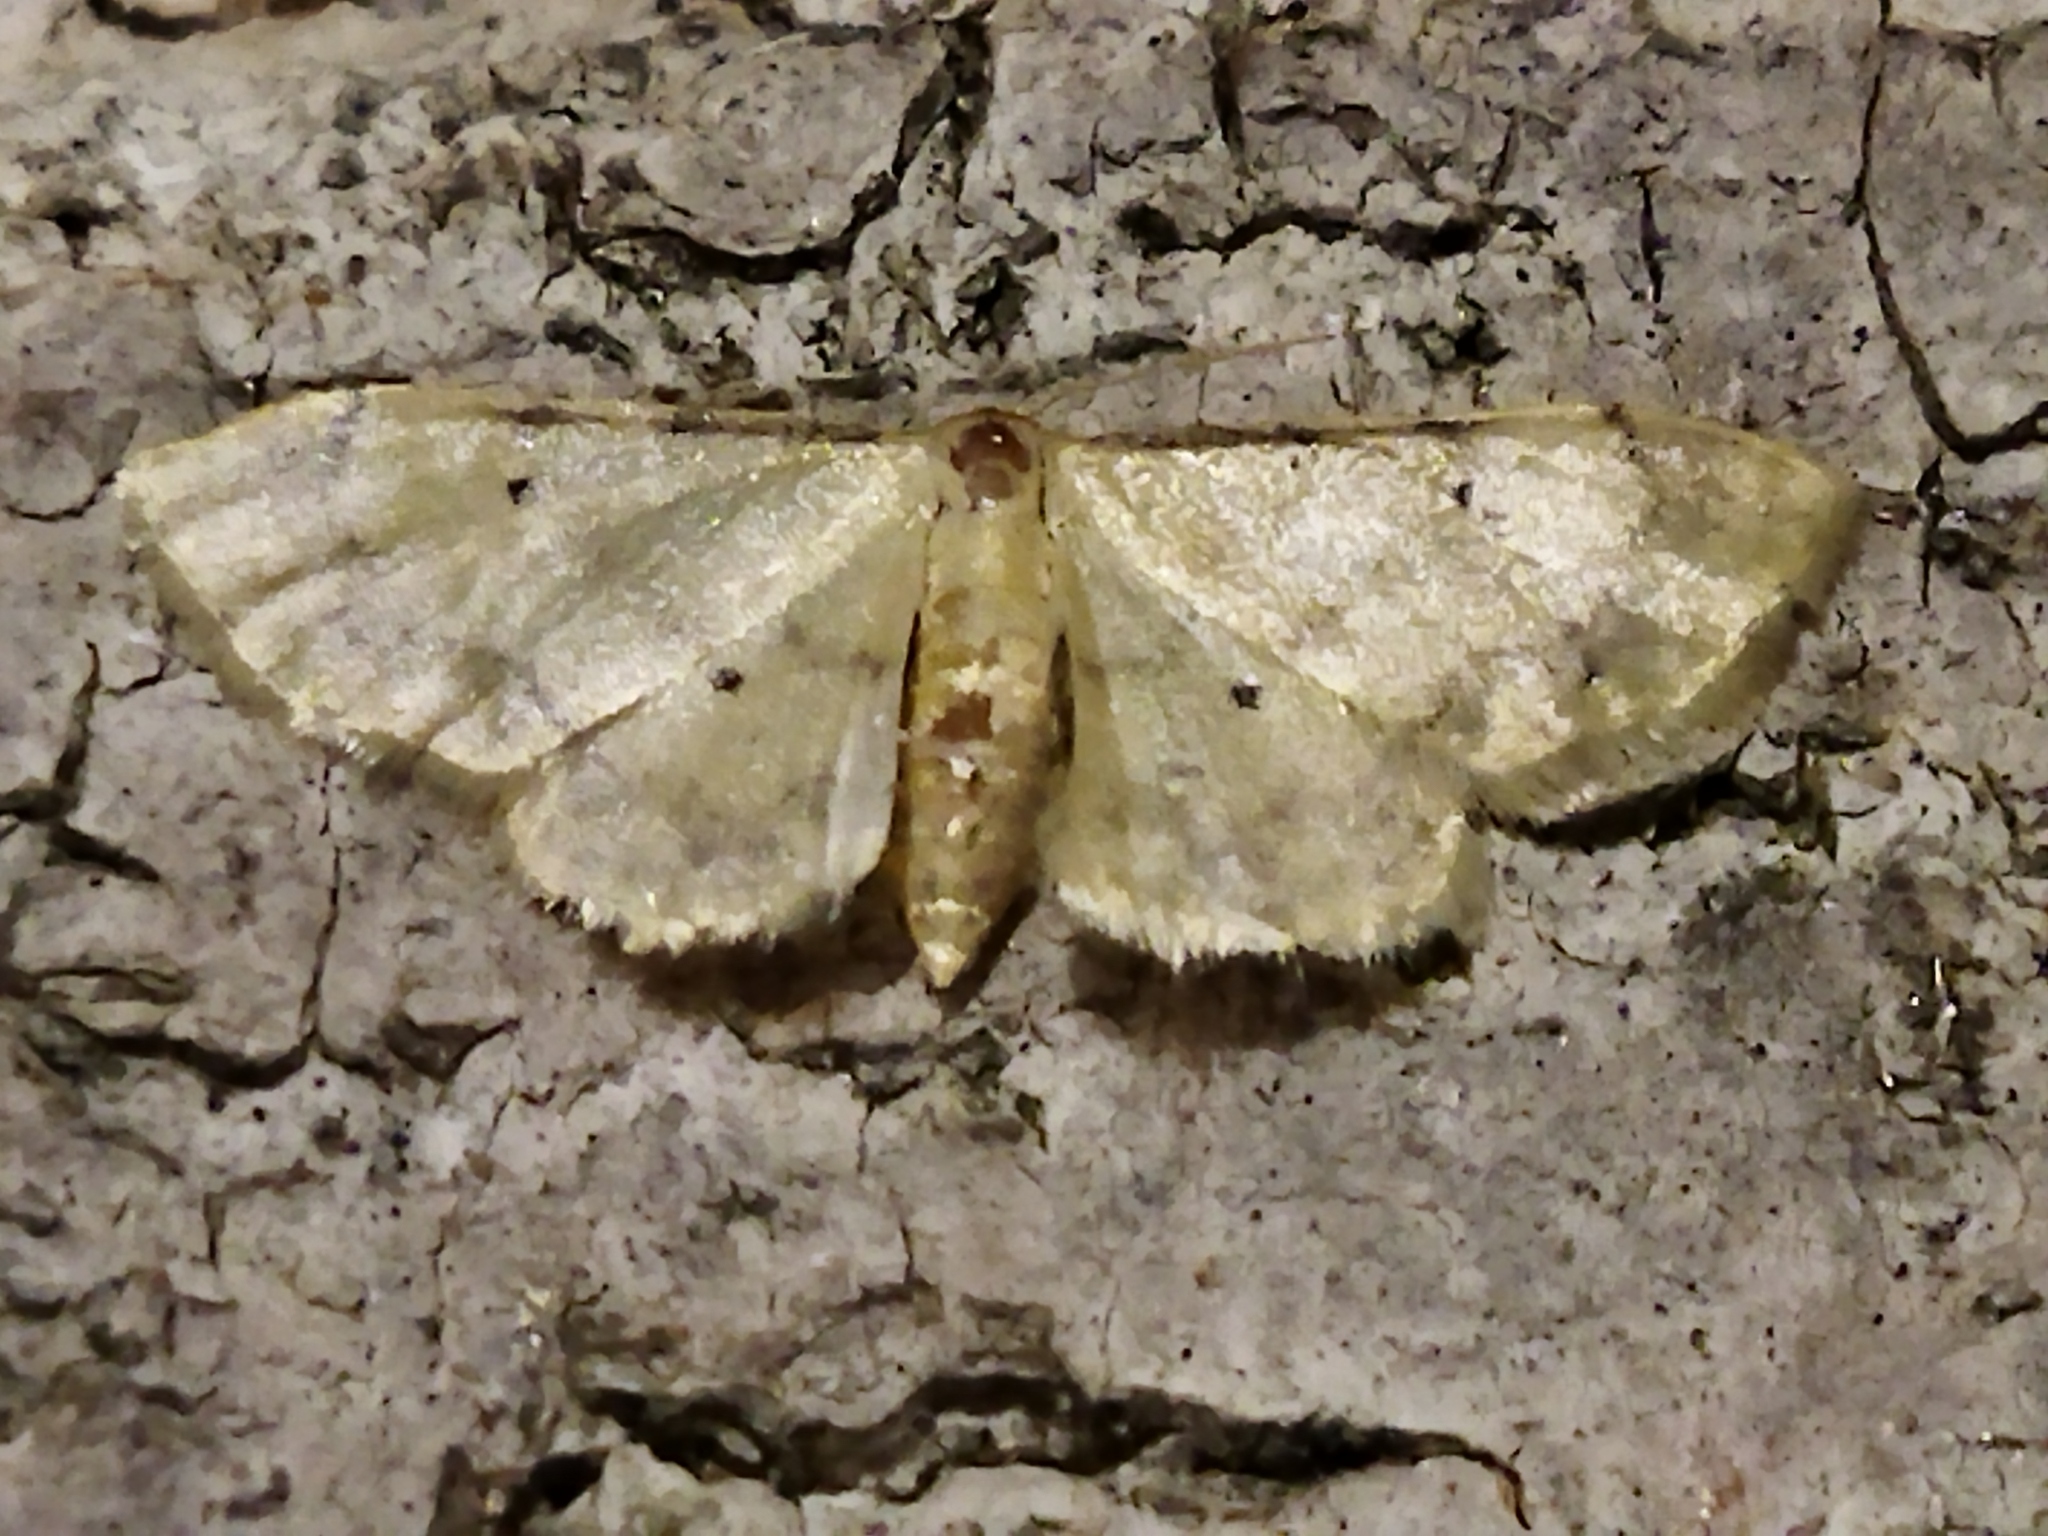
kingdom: Animalia
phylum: Arthropoda
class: Insecta
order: Lepidoptera
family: Geometridae
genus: Idaea
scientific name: Idaea politaria
